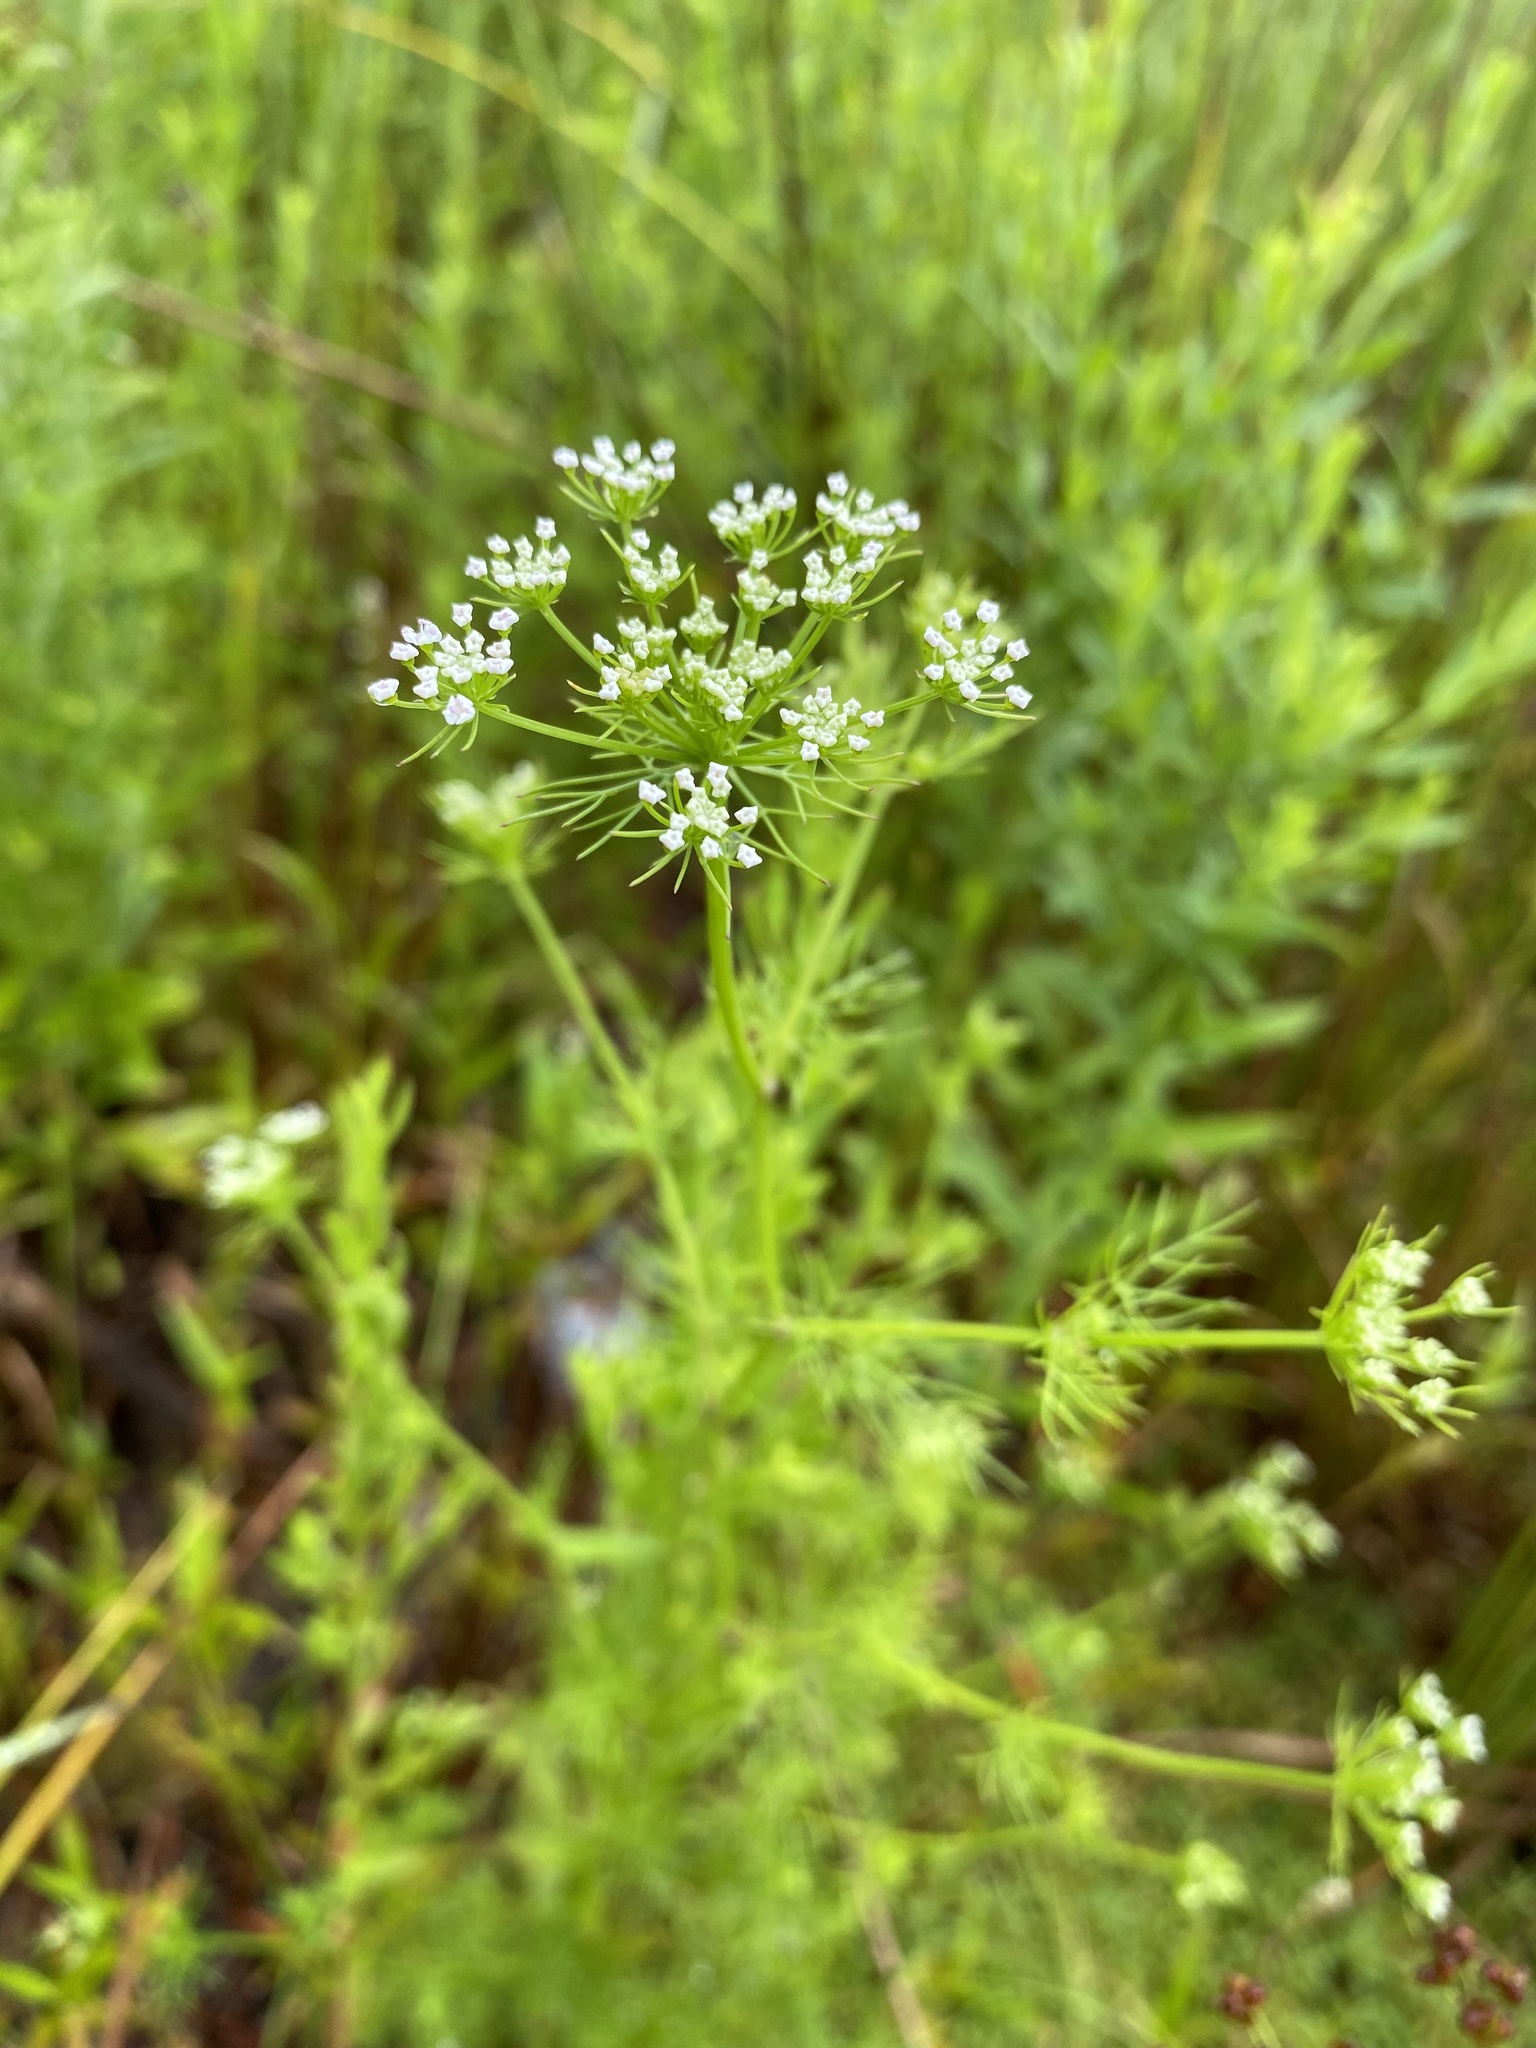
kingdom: Plantae
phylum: Tracheophyta
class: Magnoliopsida
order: Apiales
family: Apiaceae
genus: Ptilimnium
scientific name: Ptilimnium capillaceum
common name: Herbwilliam
